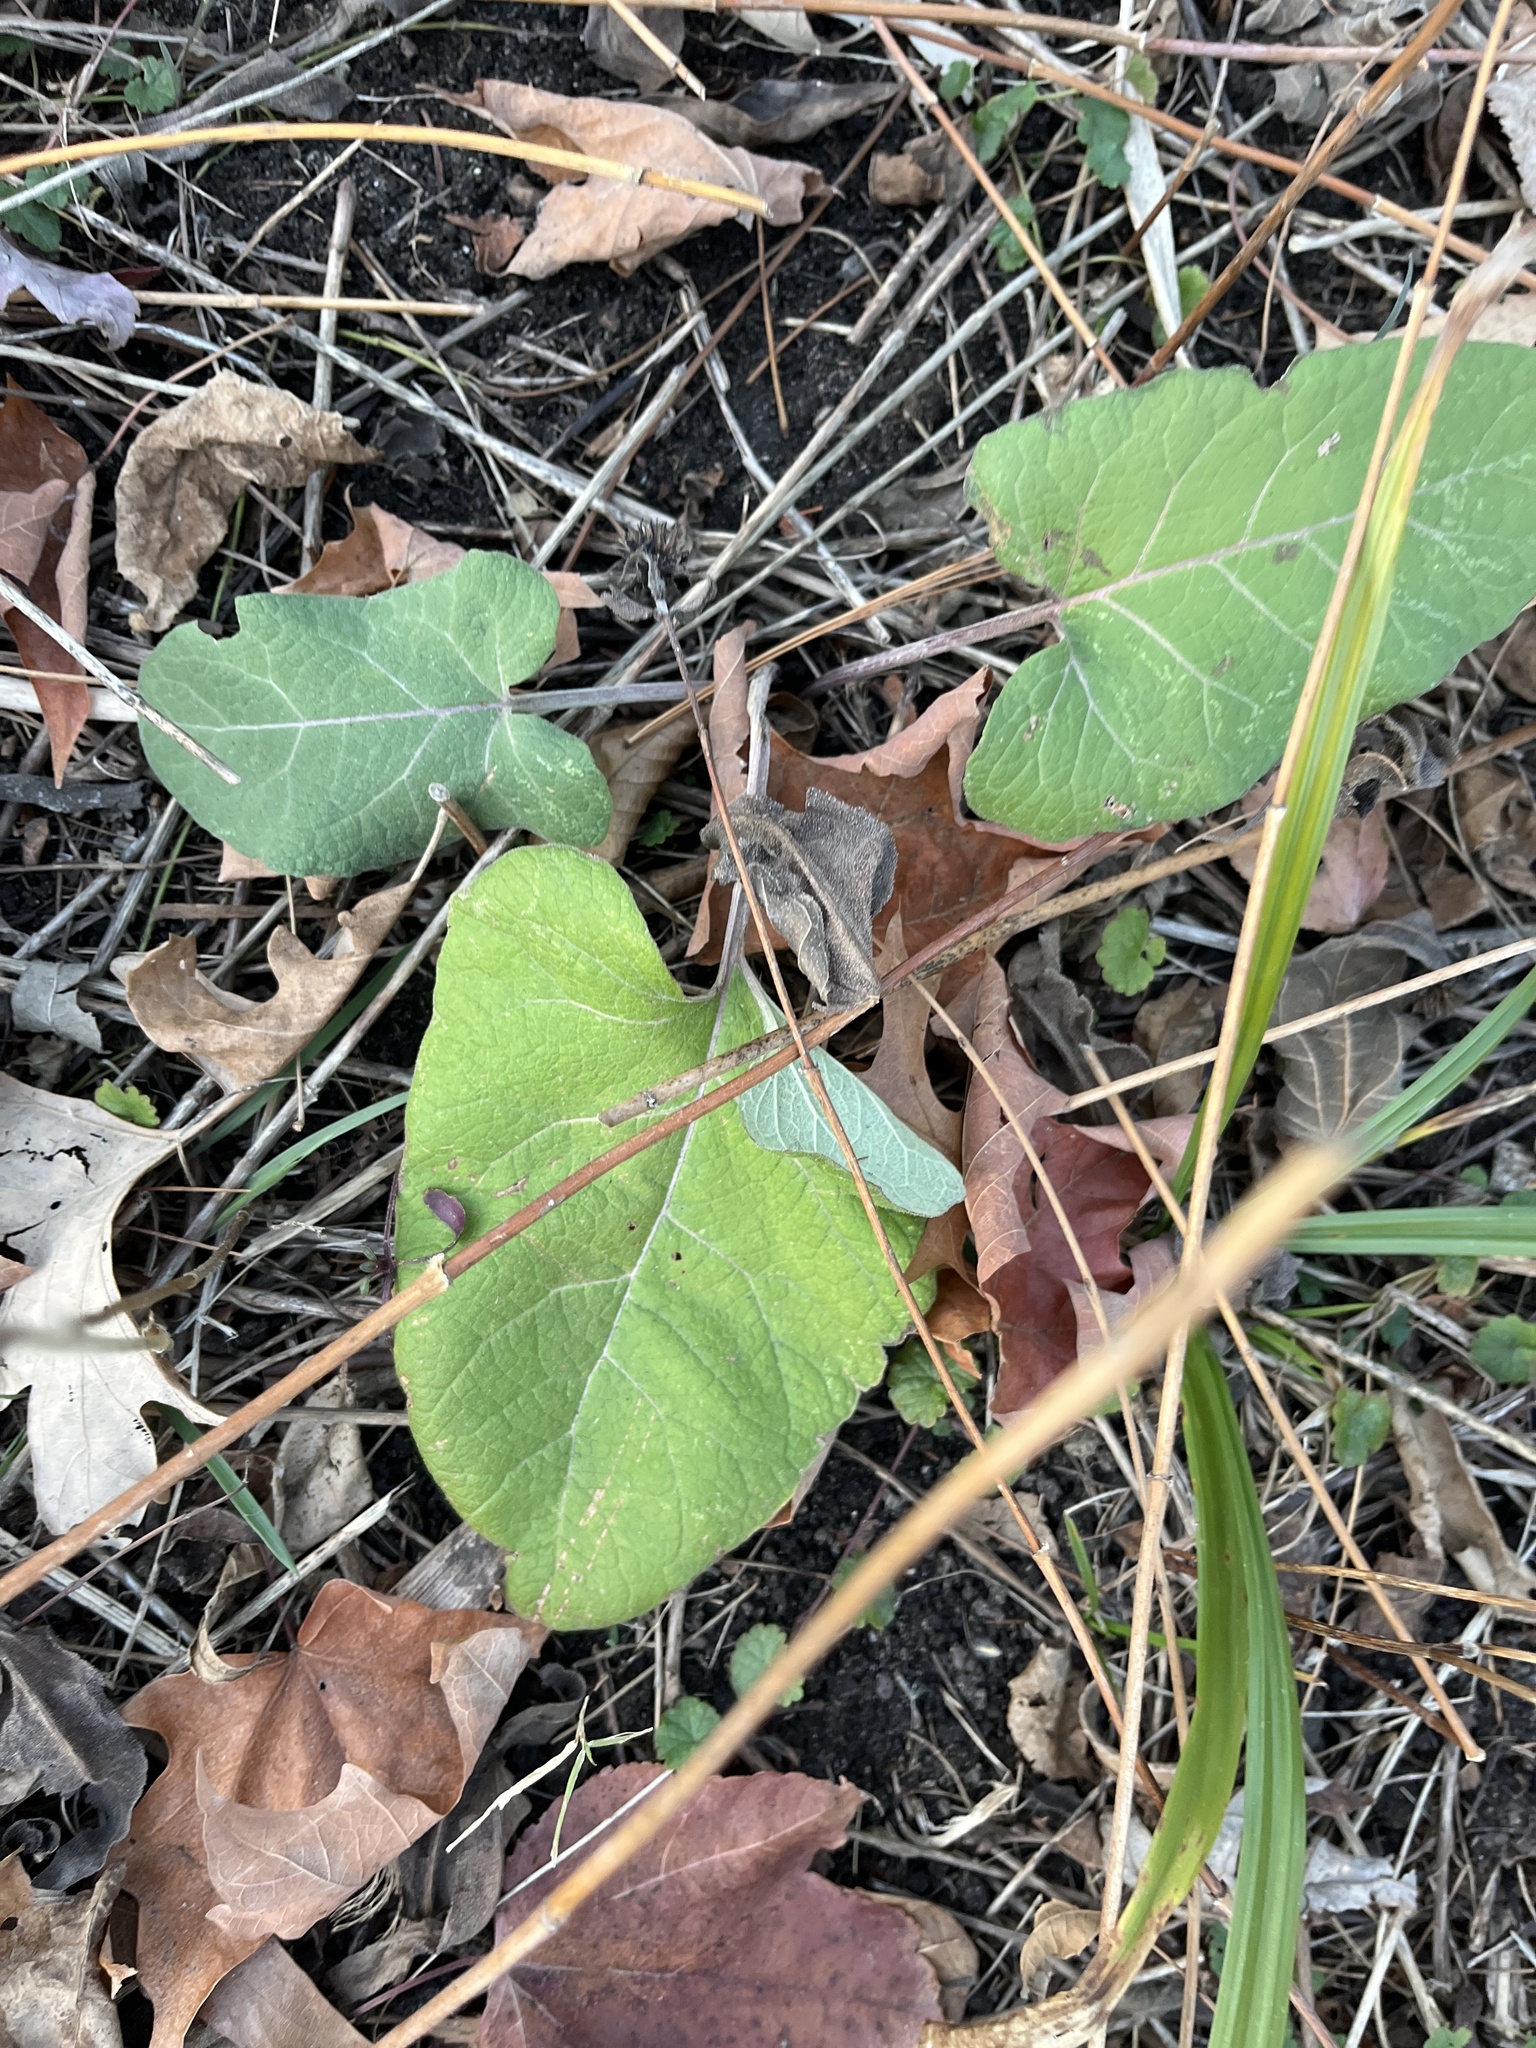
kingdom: Plantae
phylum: Tracheophyta
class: Magnoliopsida
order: Asterales
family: Asteraceae
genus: Arctium
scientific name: Arctium
